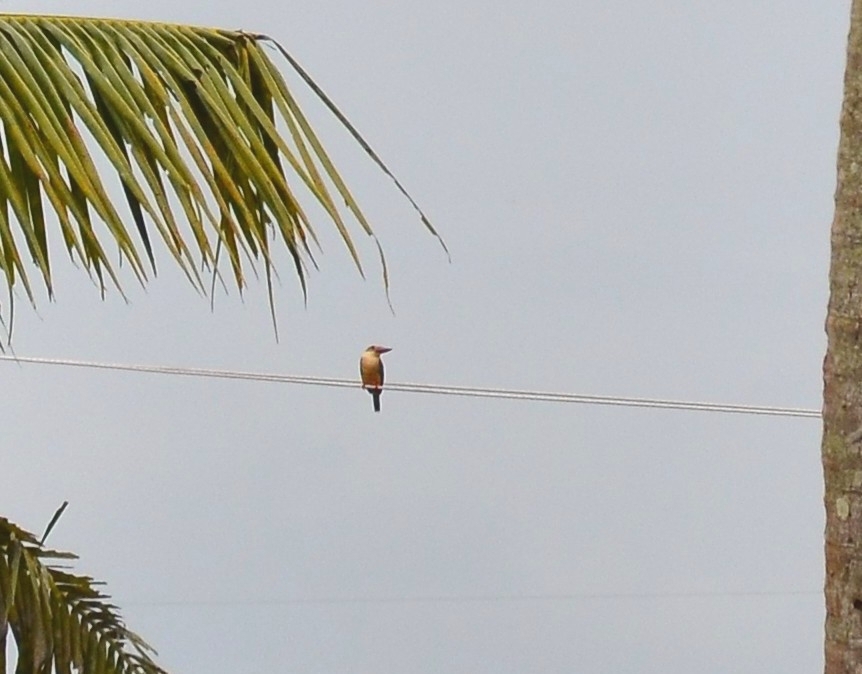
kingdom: Animalia
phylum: Chordata
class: Aves
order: Coraciiformes
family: Alcedinidae
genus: Pelargopsis
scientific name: Pelargopsis capensis
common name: Stork-billed kingfisher
